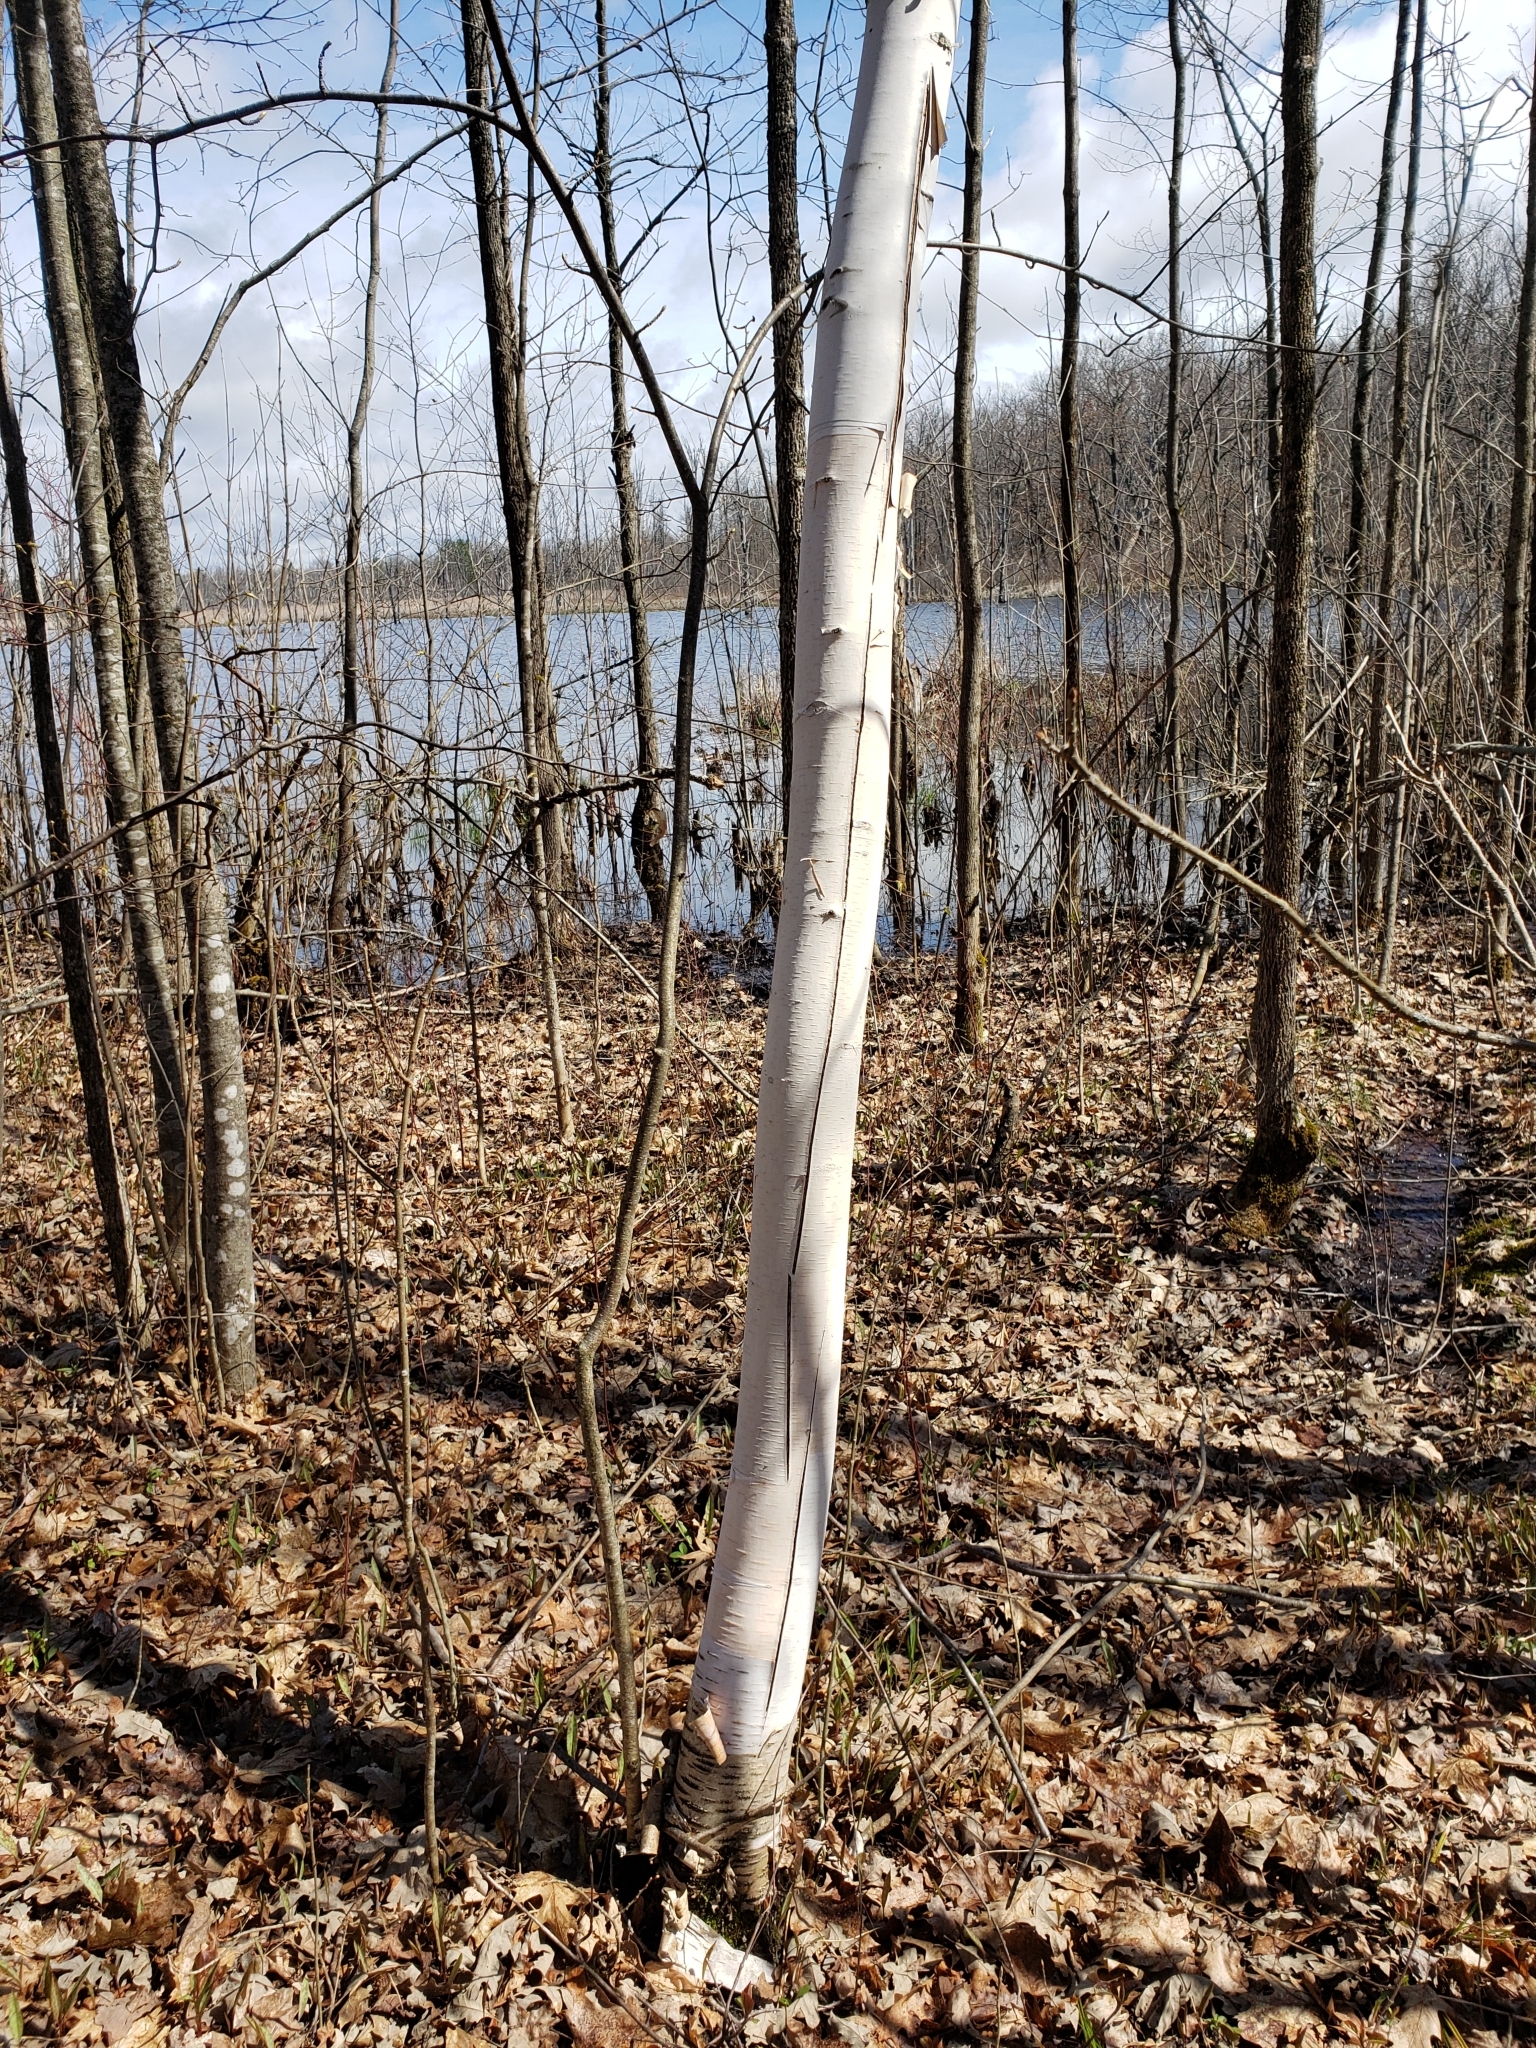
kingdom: Plantae
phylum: Tracheophyta
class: Magnoliopsida
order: Fagales
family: Betulaceae
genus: Betula
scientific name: Betula papyrifera
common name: Paper birch
